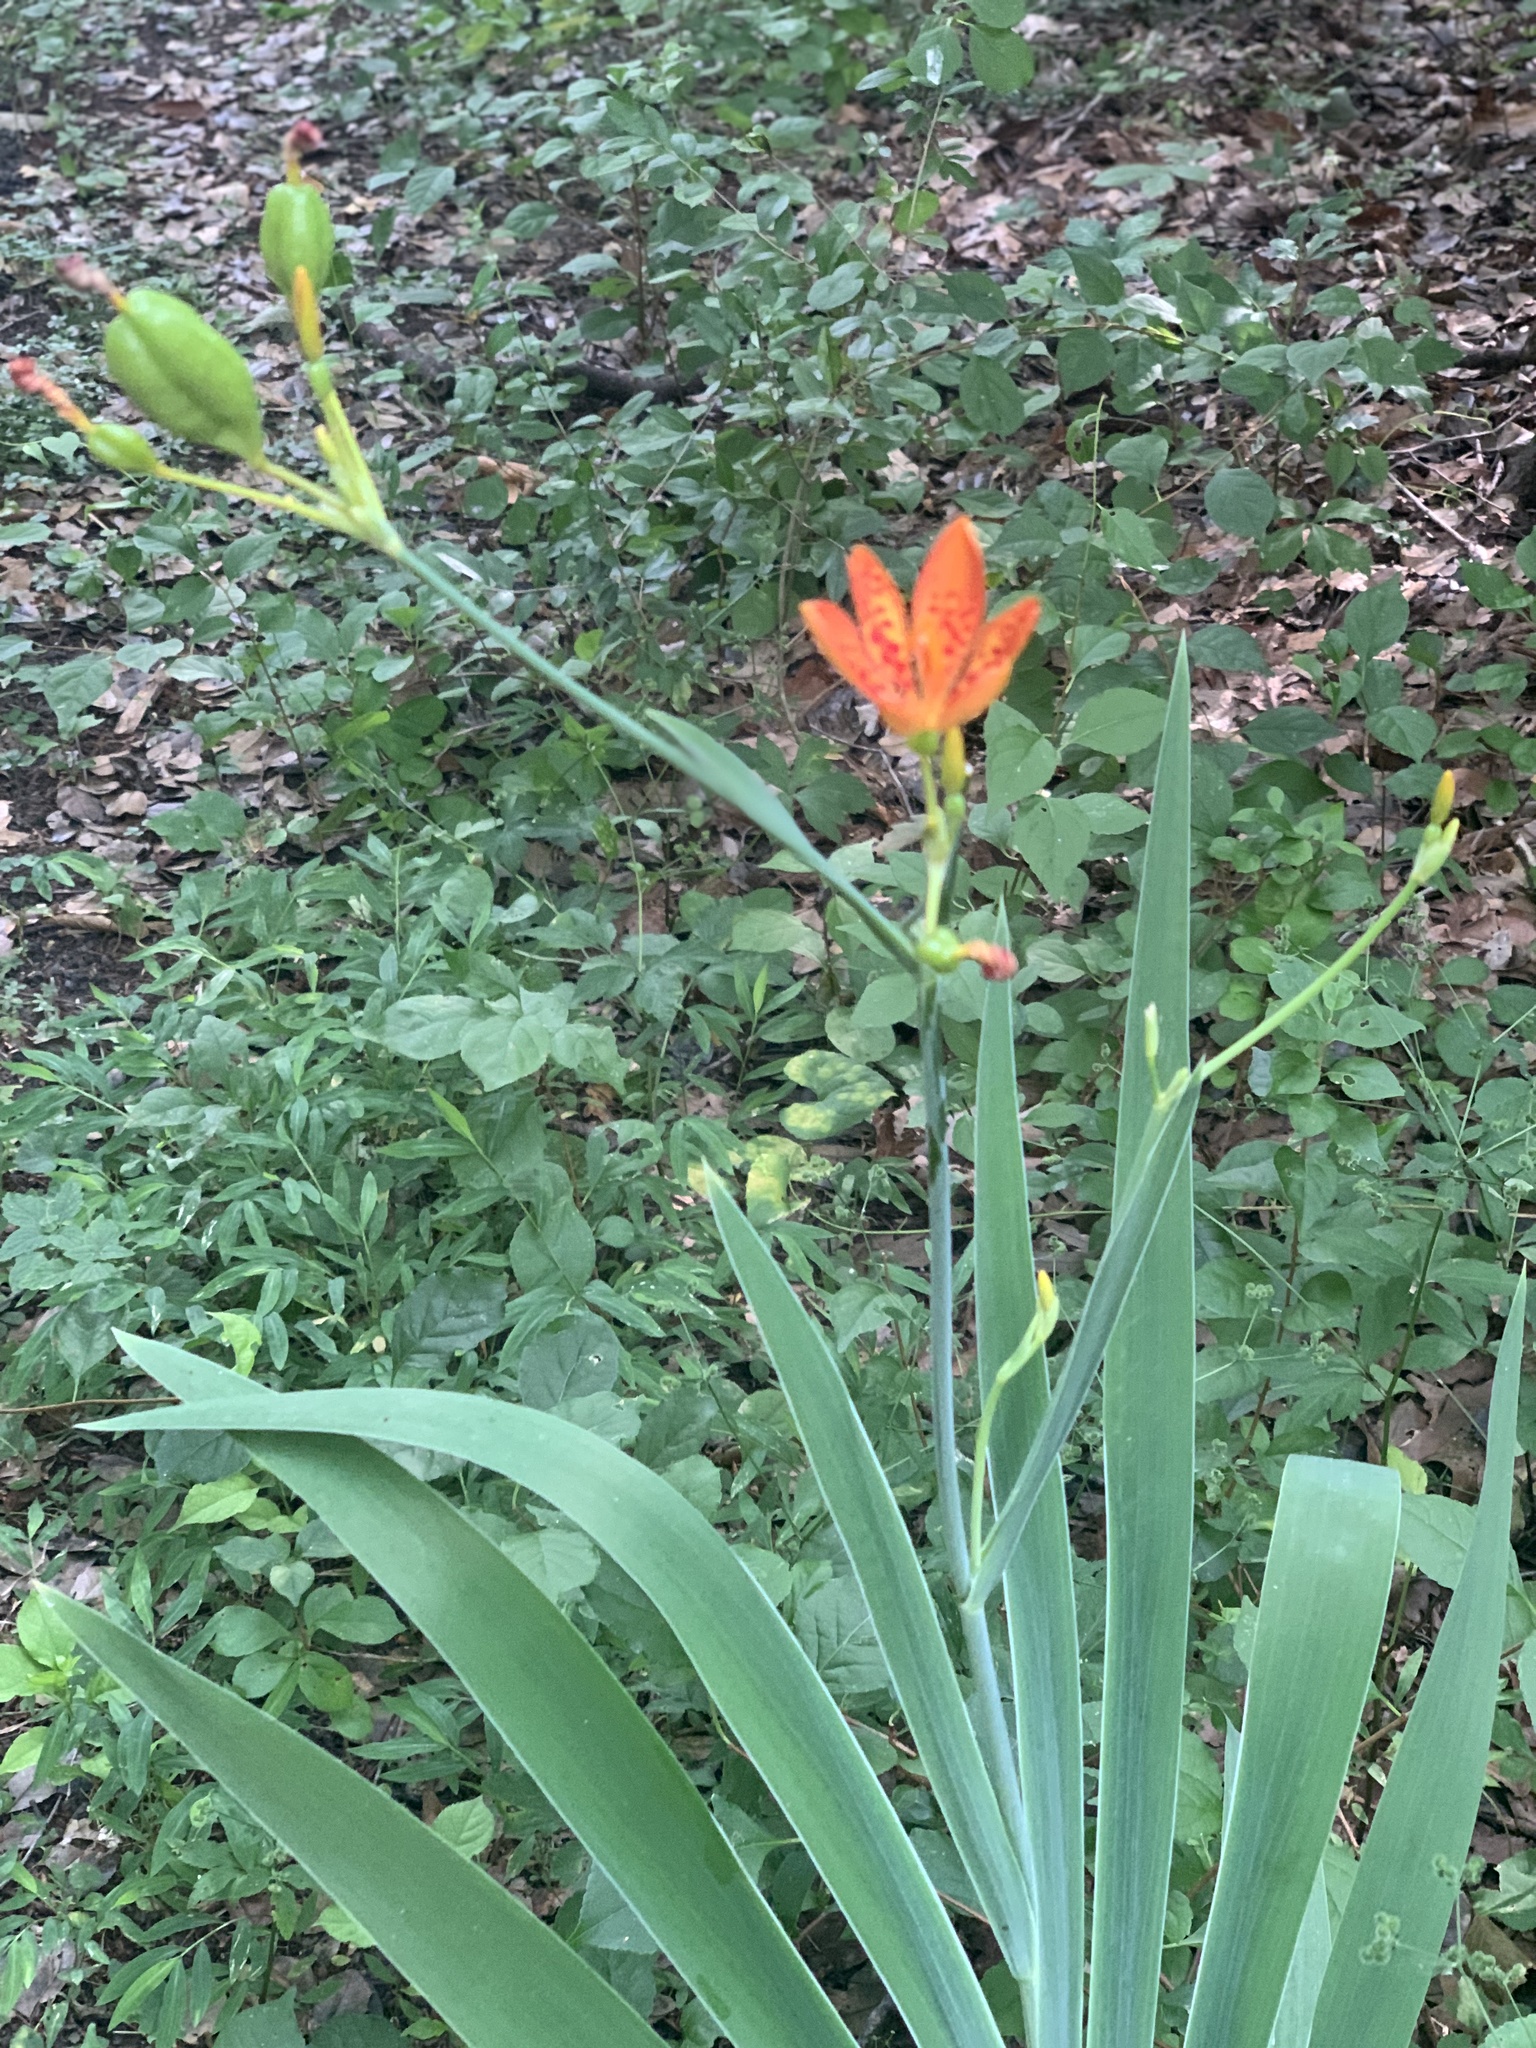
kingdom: Plantae
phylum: Tracheophyta
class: Liliopsida
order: Asparagales
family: Iridaceae
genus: Iris
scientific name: Iris domestica
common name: Belamcanda
